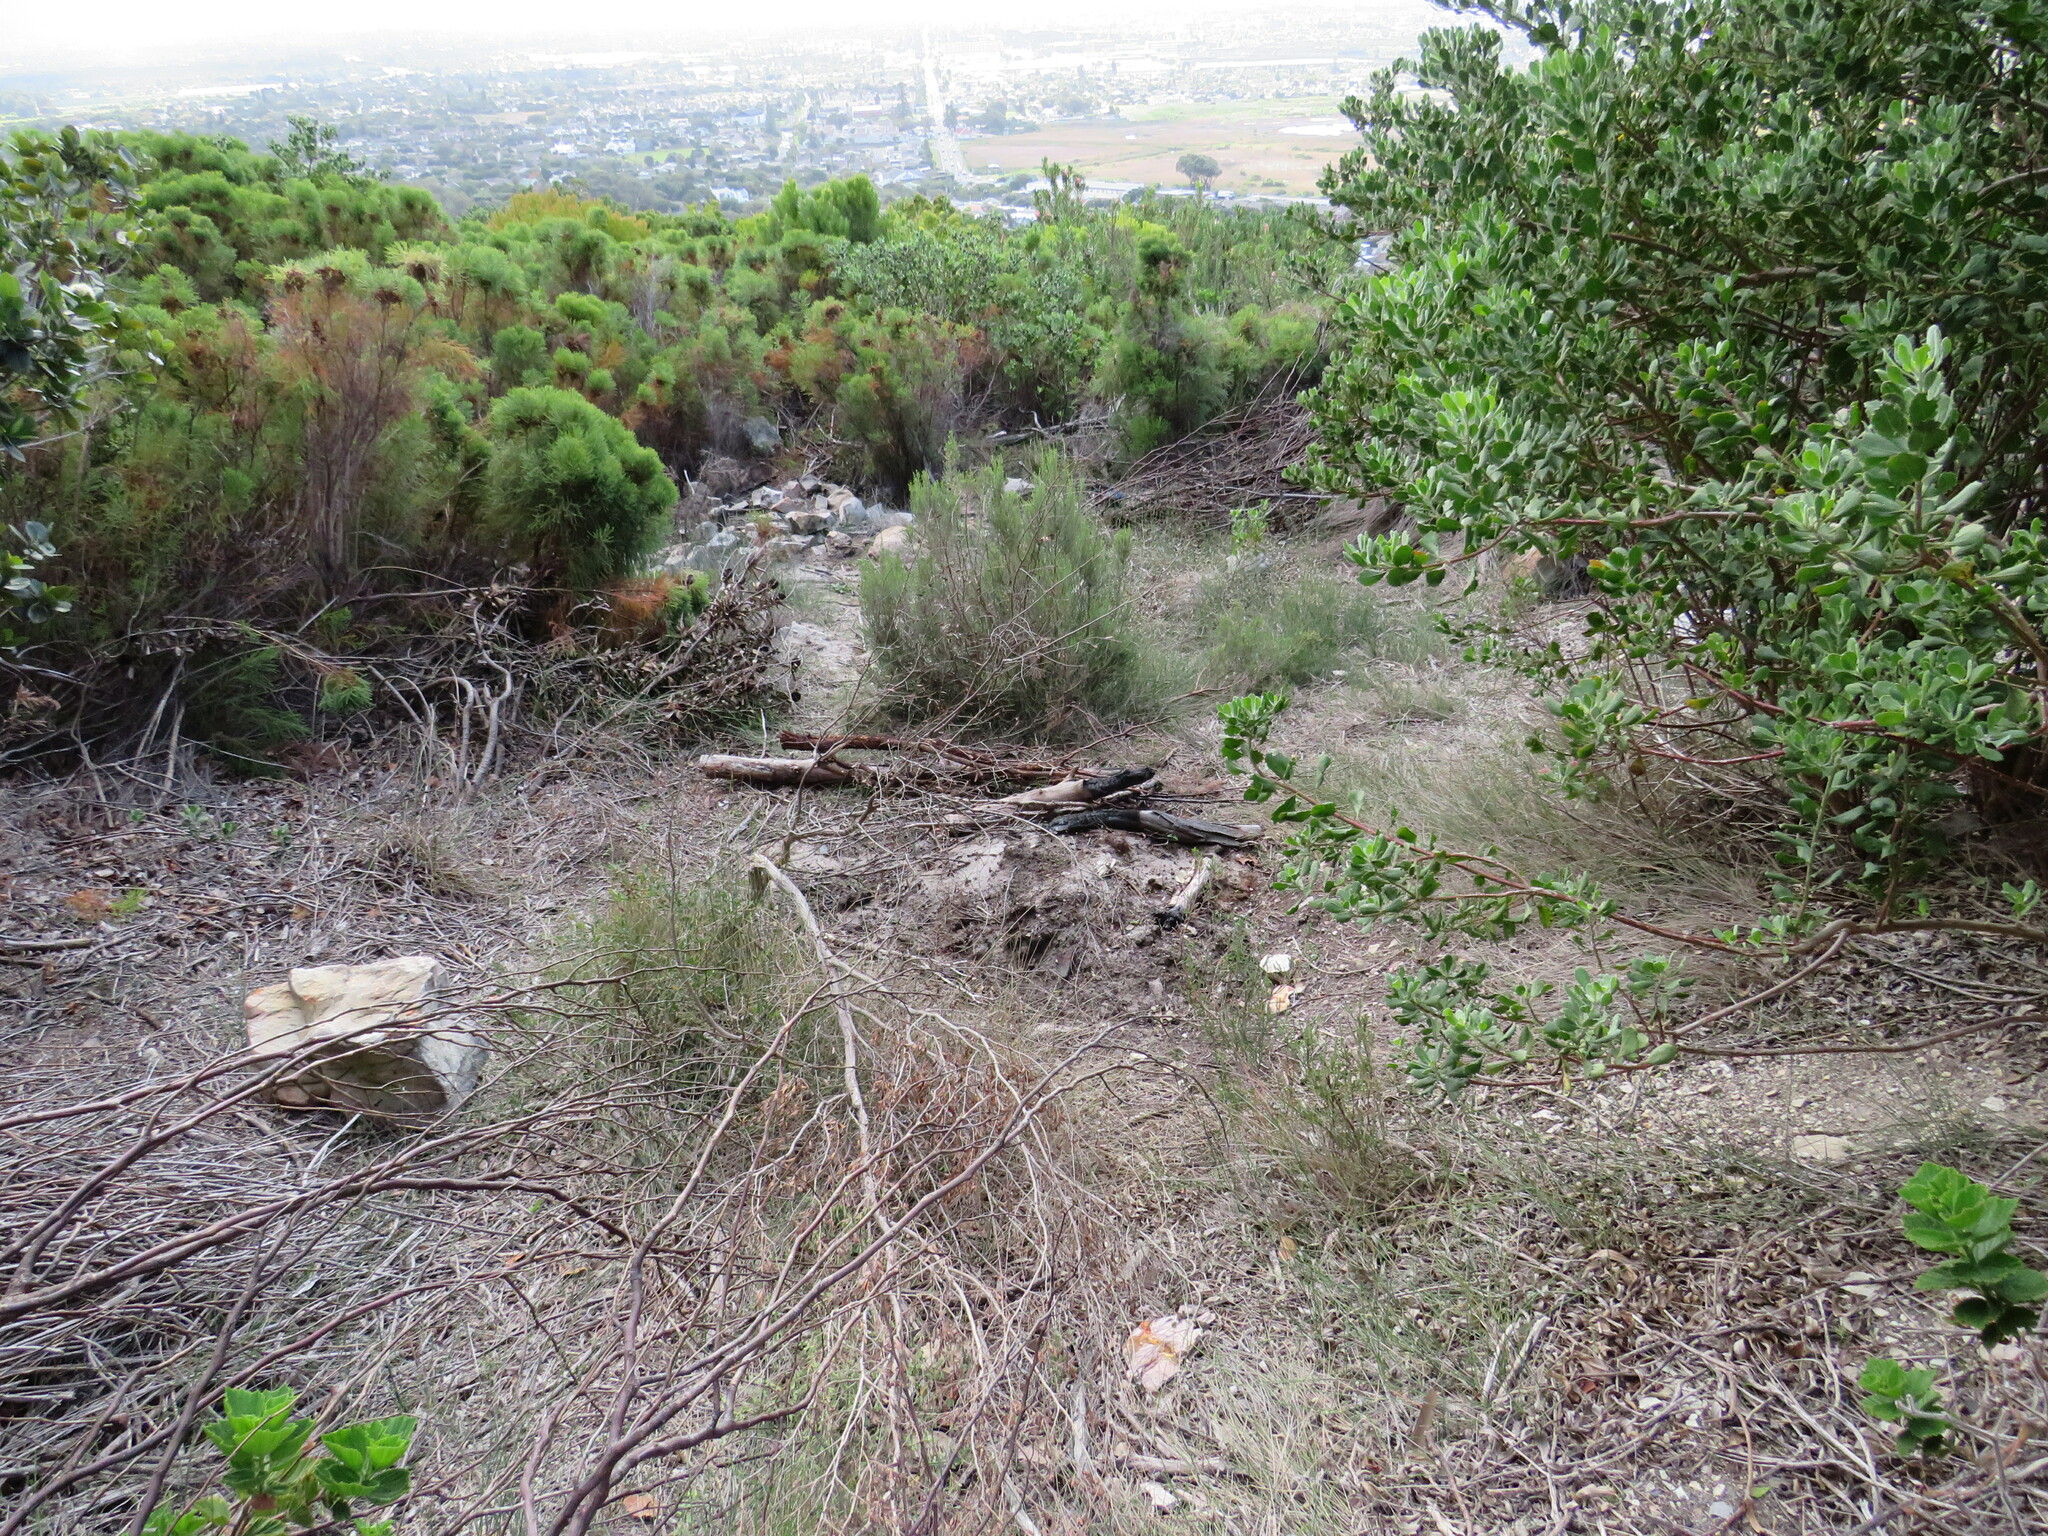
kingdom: Plantae
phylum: Tracheophyta
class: Magnoliopsida
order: Fabales
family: Fabaceae
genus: Acacia
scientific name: Acacia saligna
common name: Orange wattle
